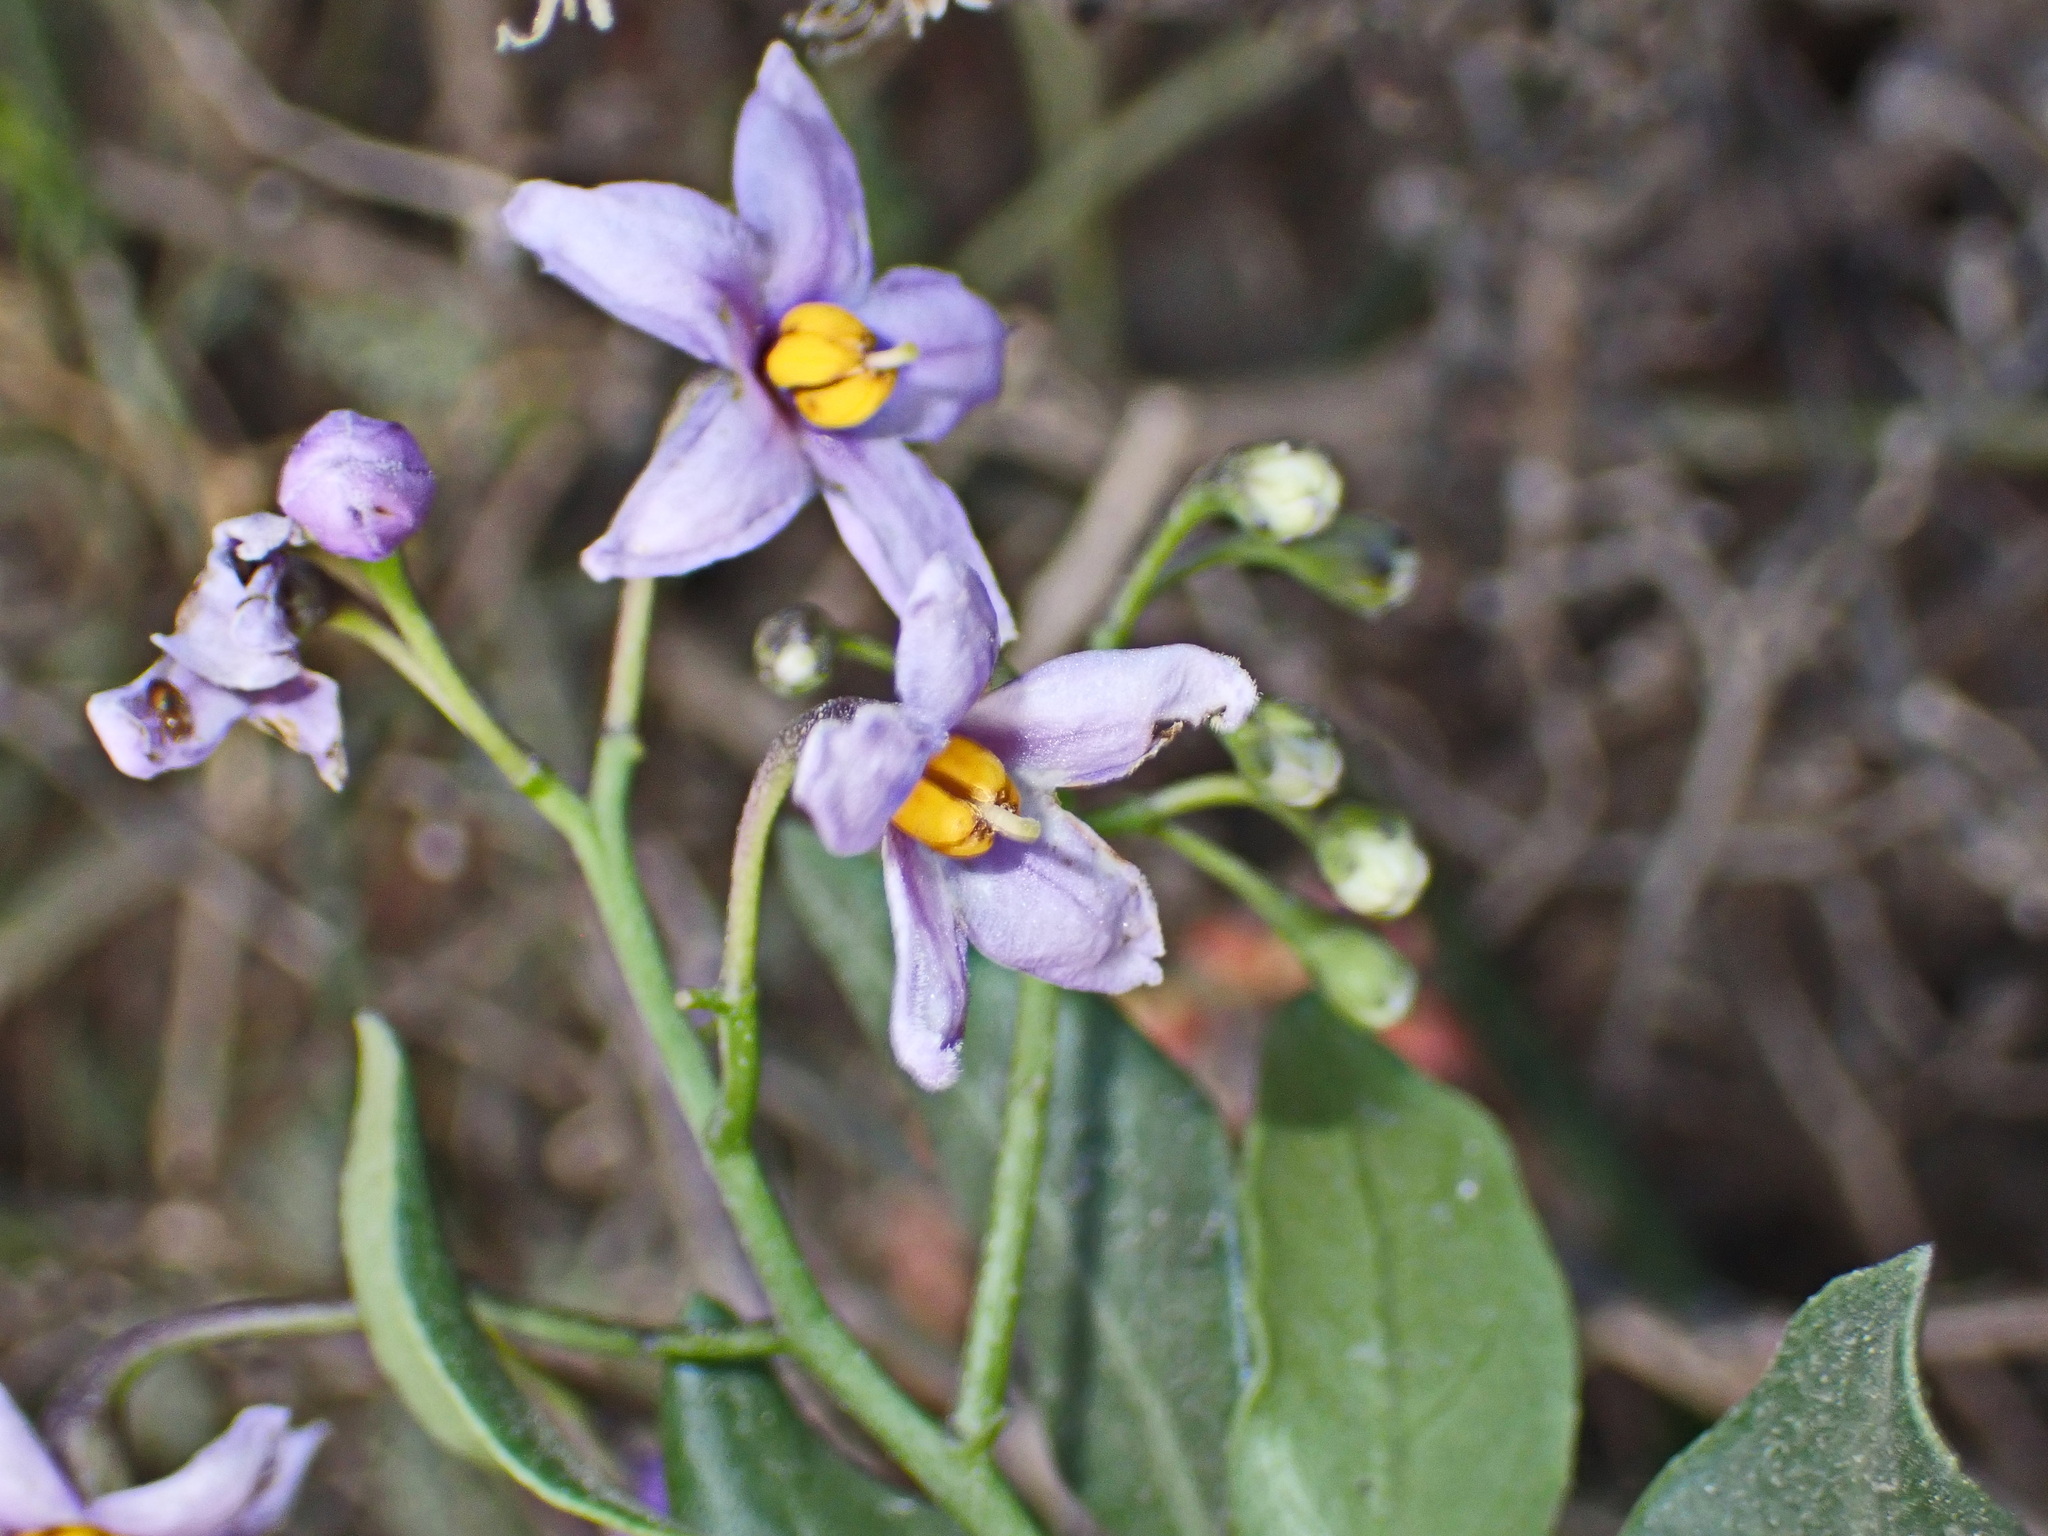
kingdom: Plantae
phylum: Tracheophyta
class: Magnoliopsida
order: Solanales
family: Solanaceae
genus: Solanum
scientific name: Solanum africanum
